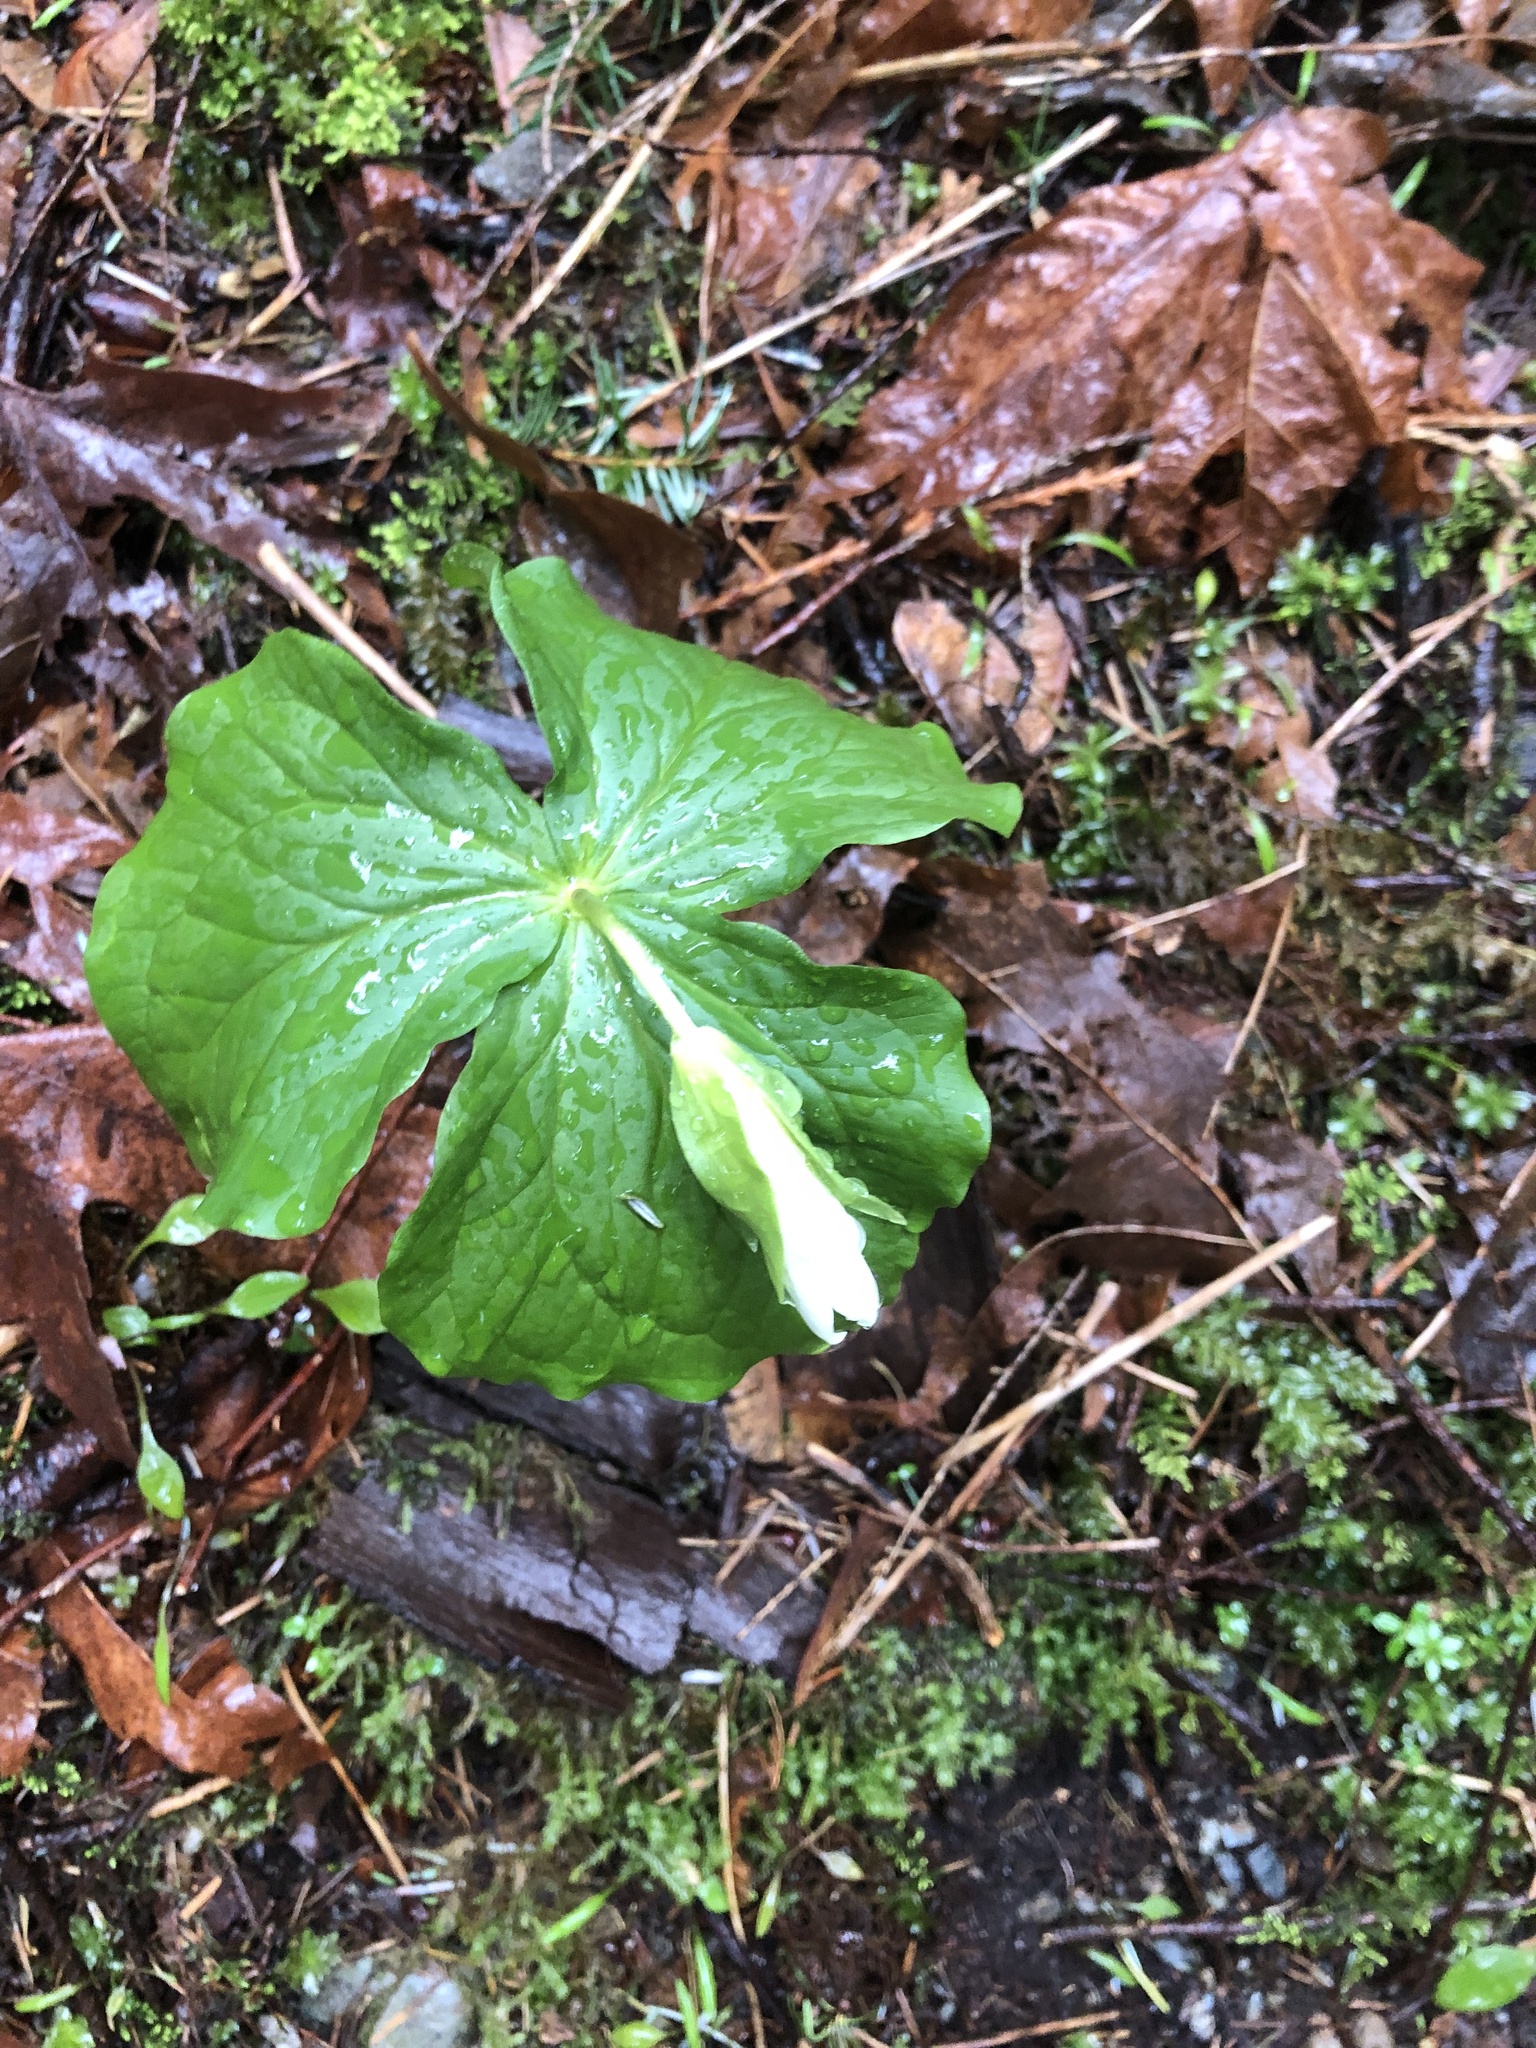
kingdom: Plantae
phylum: Tracheophyta
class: Liliopsida
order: Liliales
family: Melanthiaceae
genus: Trillium
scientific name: Trillium ovatum
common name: Pacific trillium
